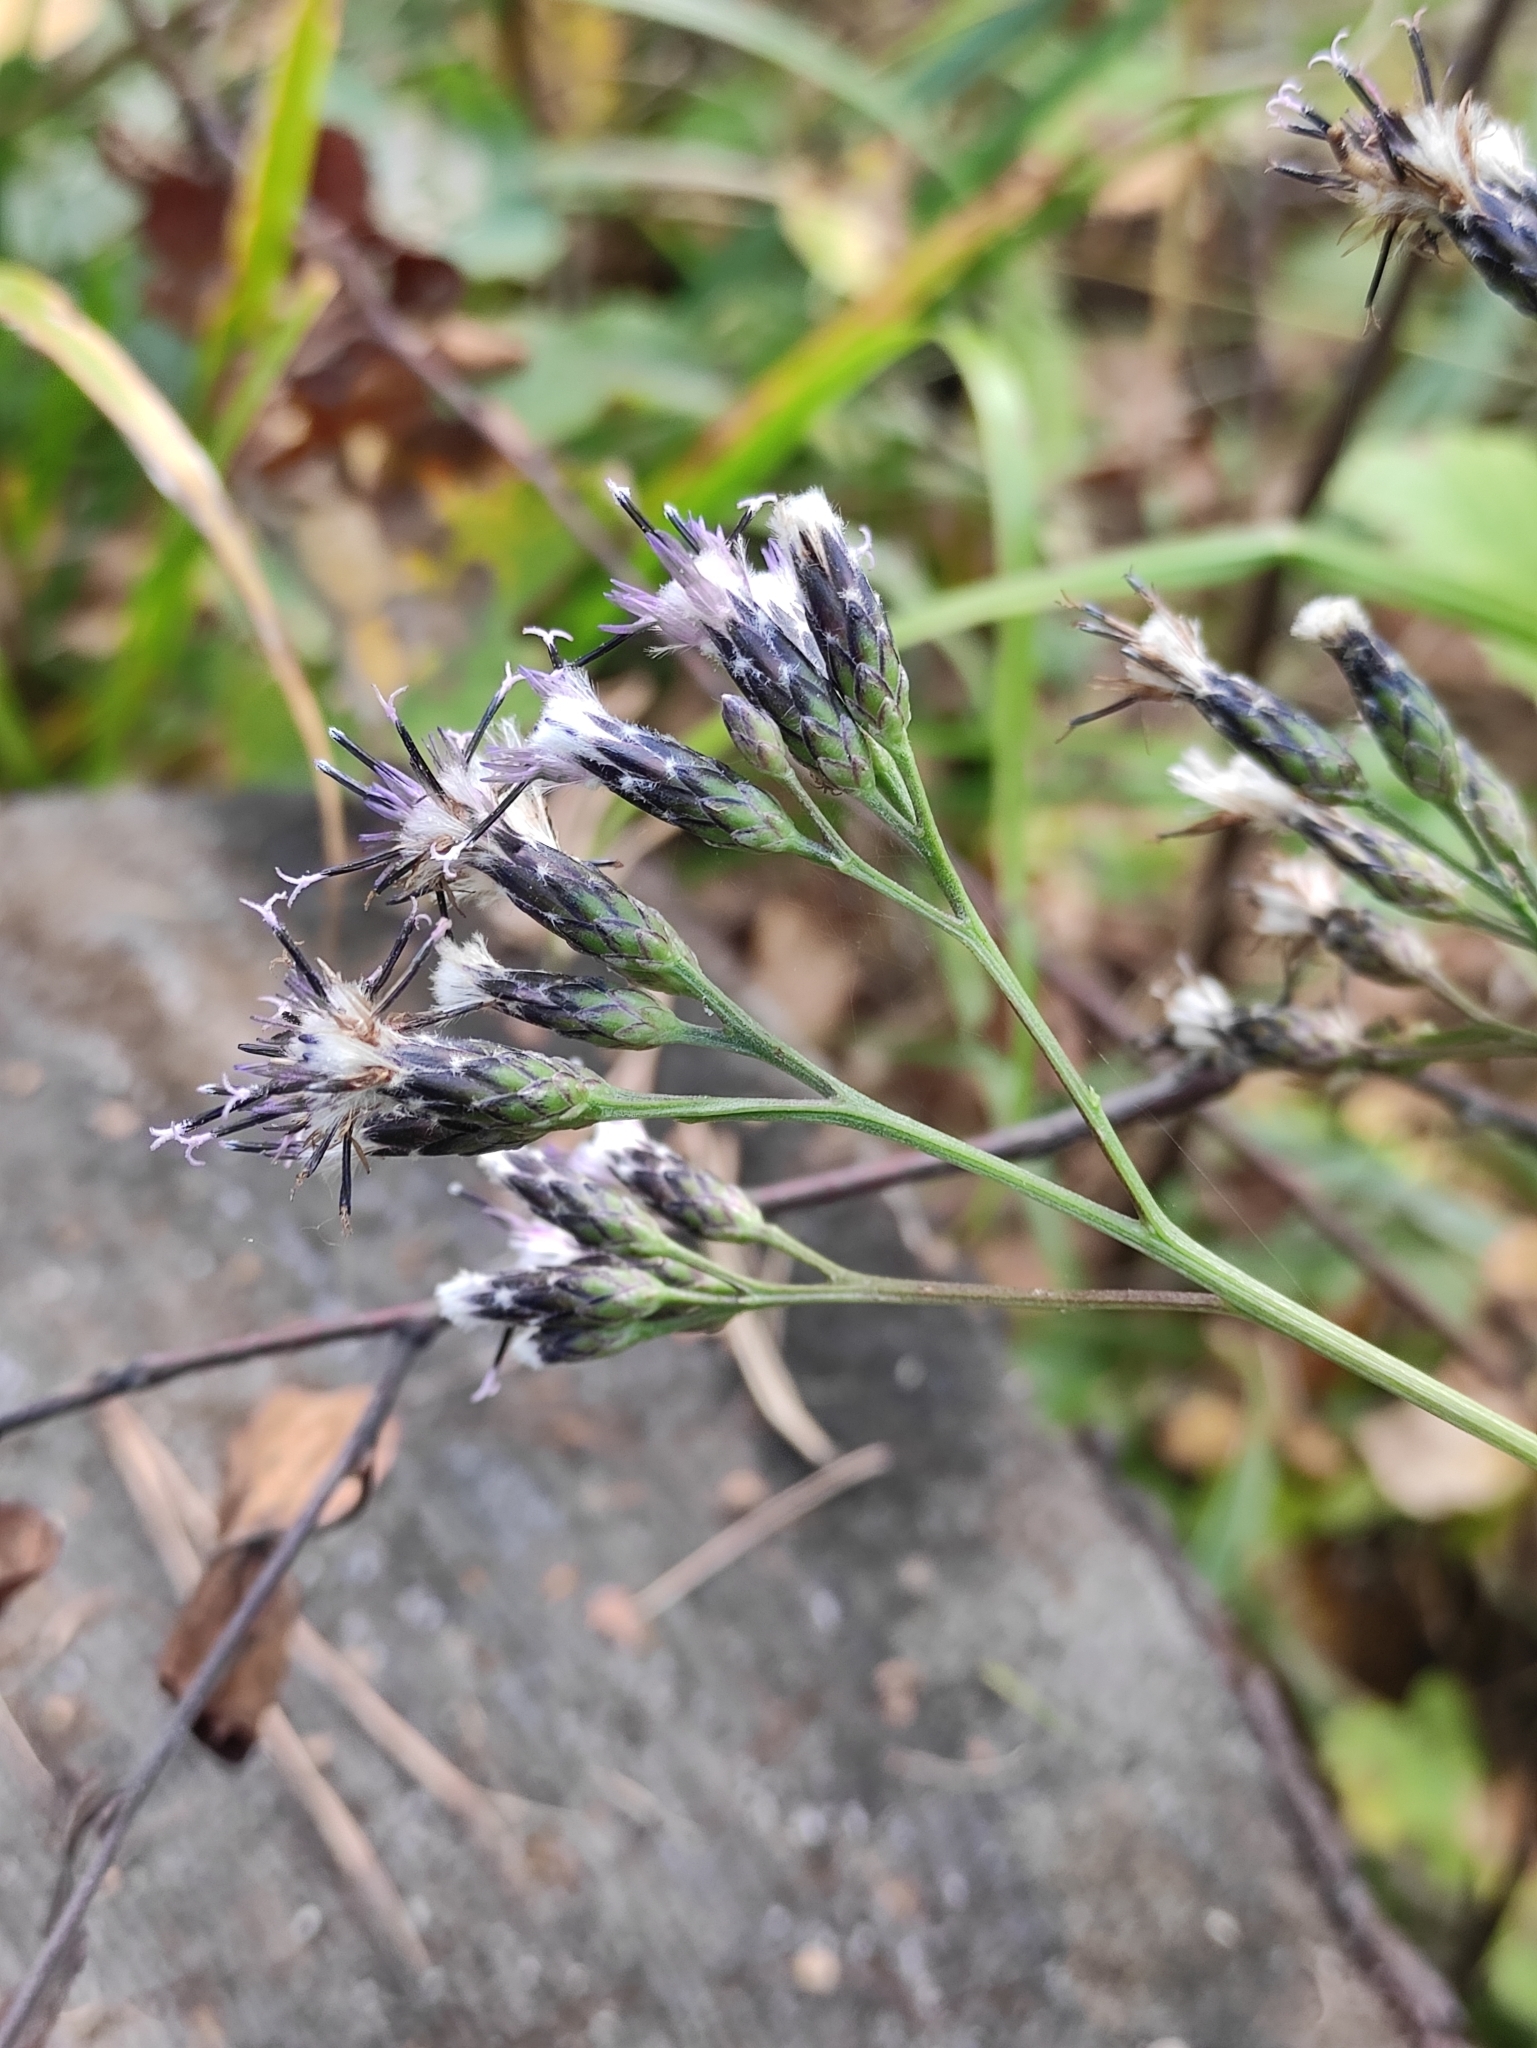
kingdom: Plantae
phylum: Tracheophyta
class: Magnoliopsida
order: Asterales
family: Asteraceae
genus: Saussurea
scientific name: Saussurea parviflora
